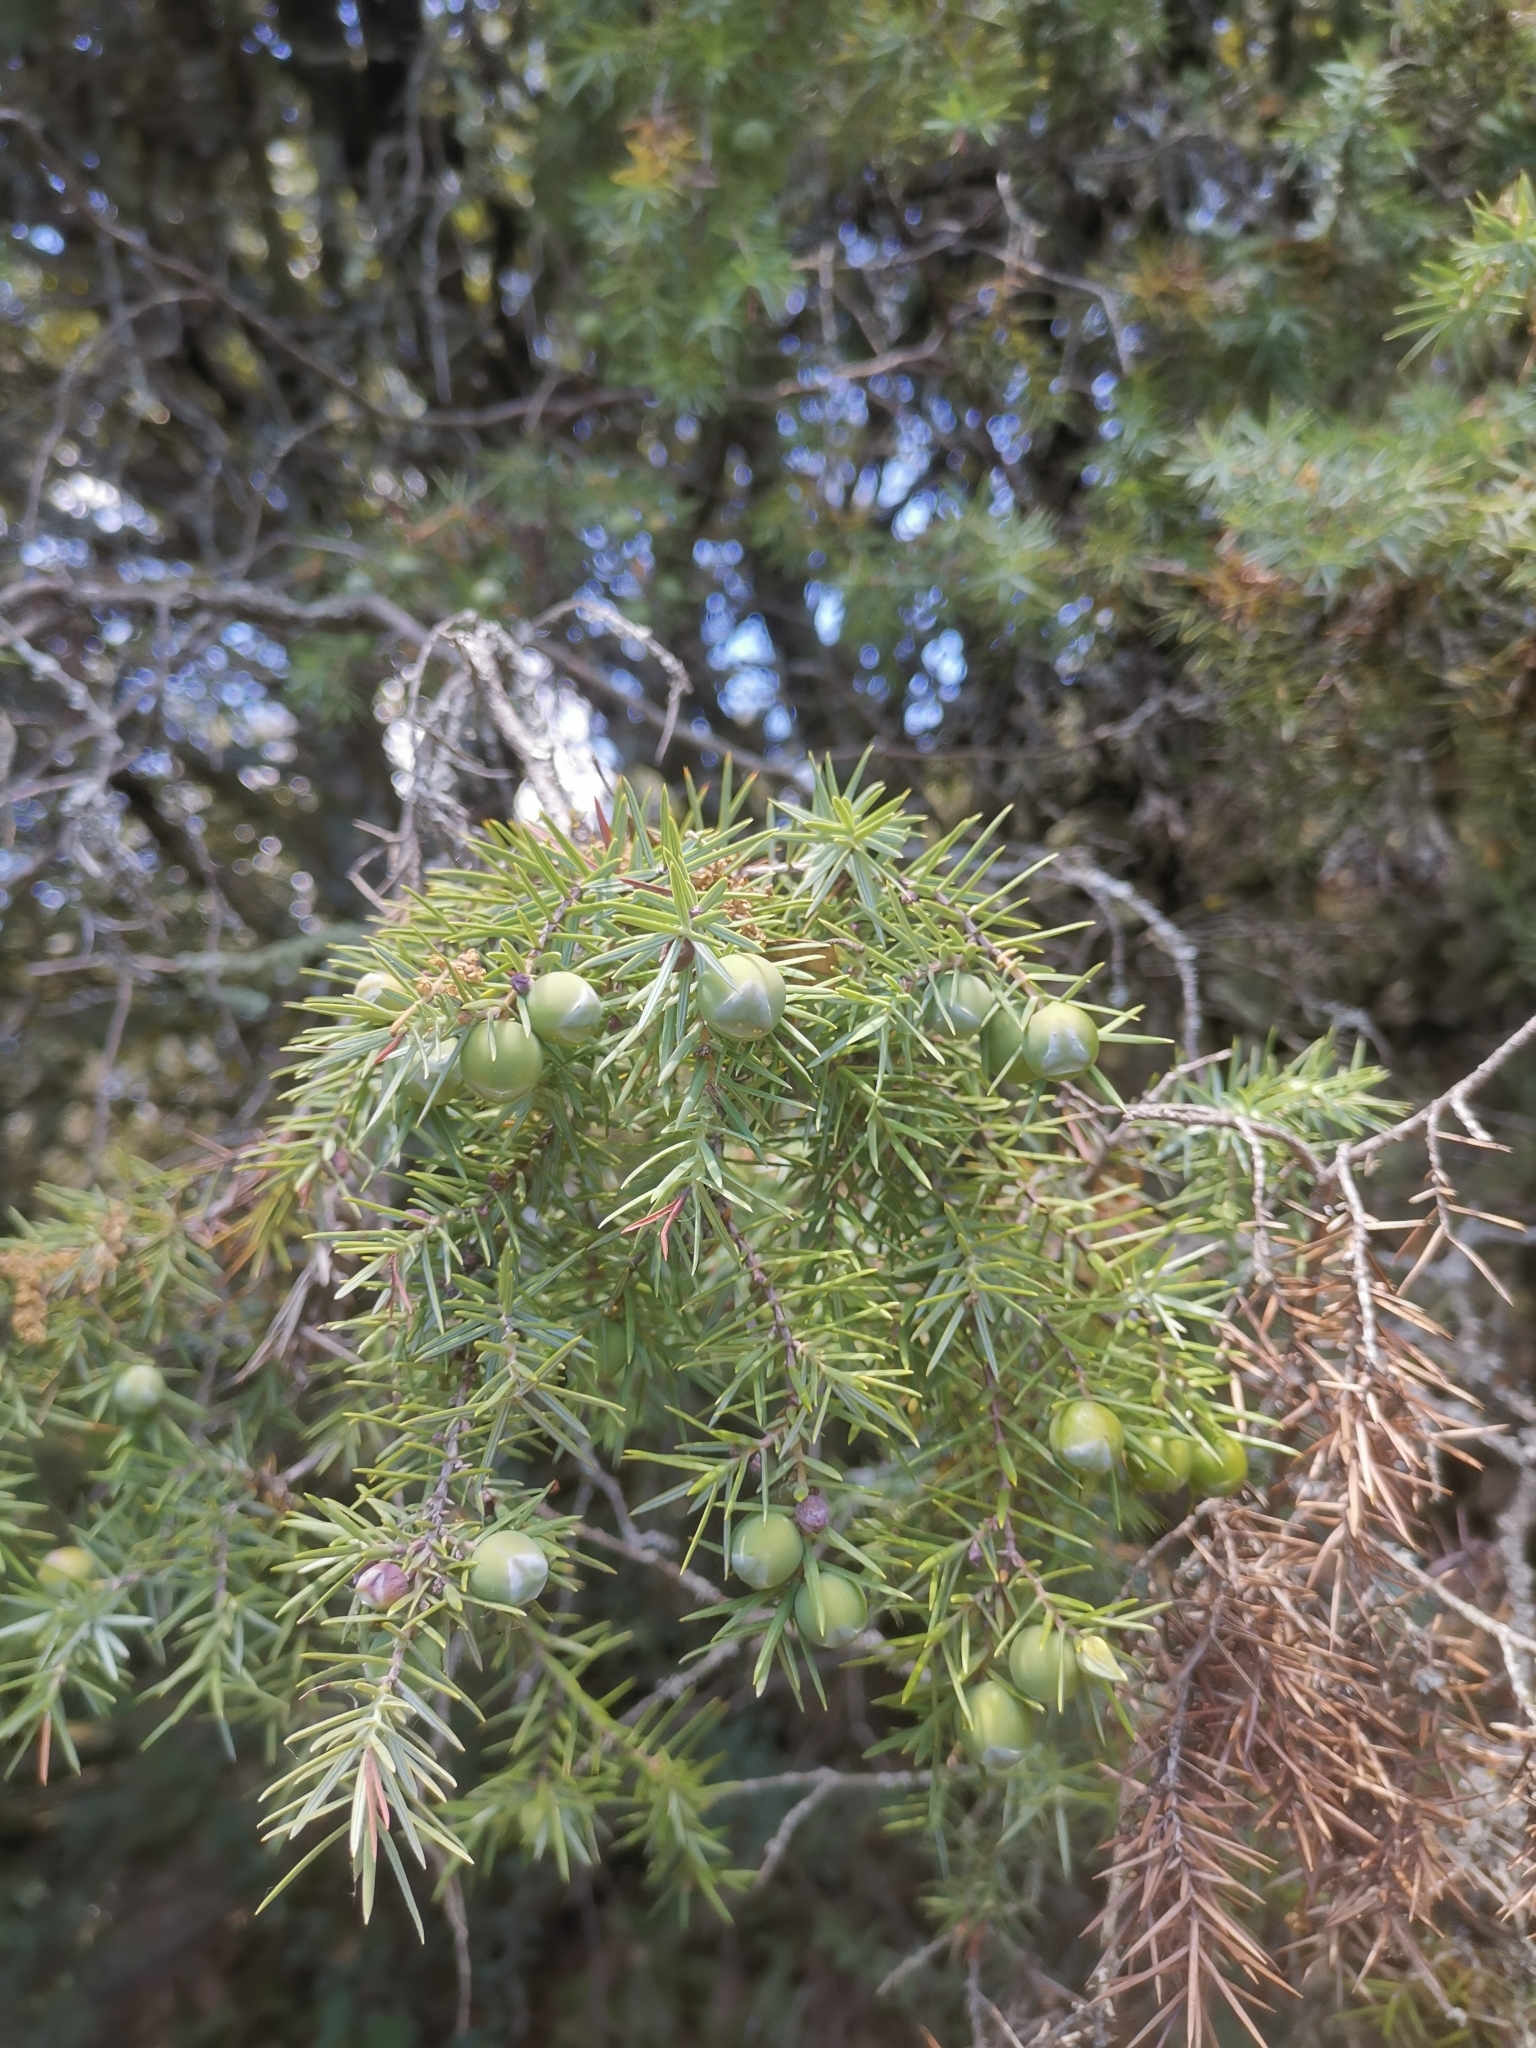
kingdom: Plantae
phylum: Tracheophyta
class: Pinopsida
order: Pinales
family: Cupressaceae
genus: Juniperus
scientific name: Juniperus oxycedrus
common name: Prickly juniper
